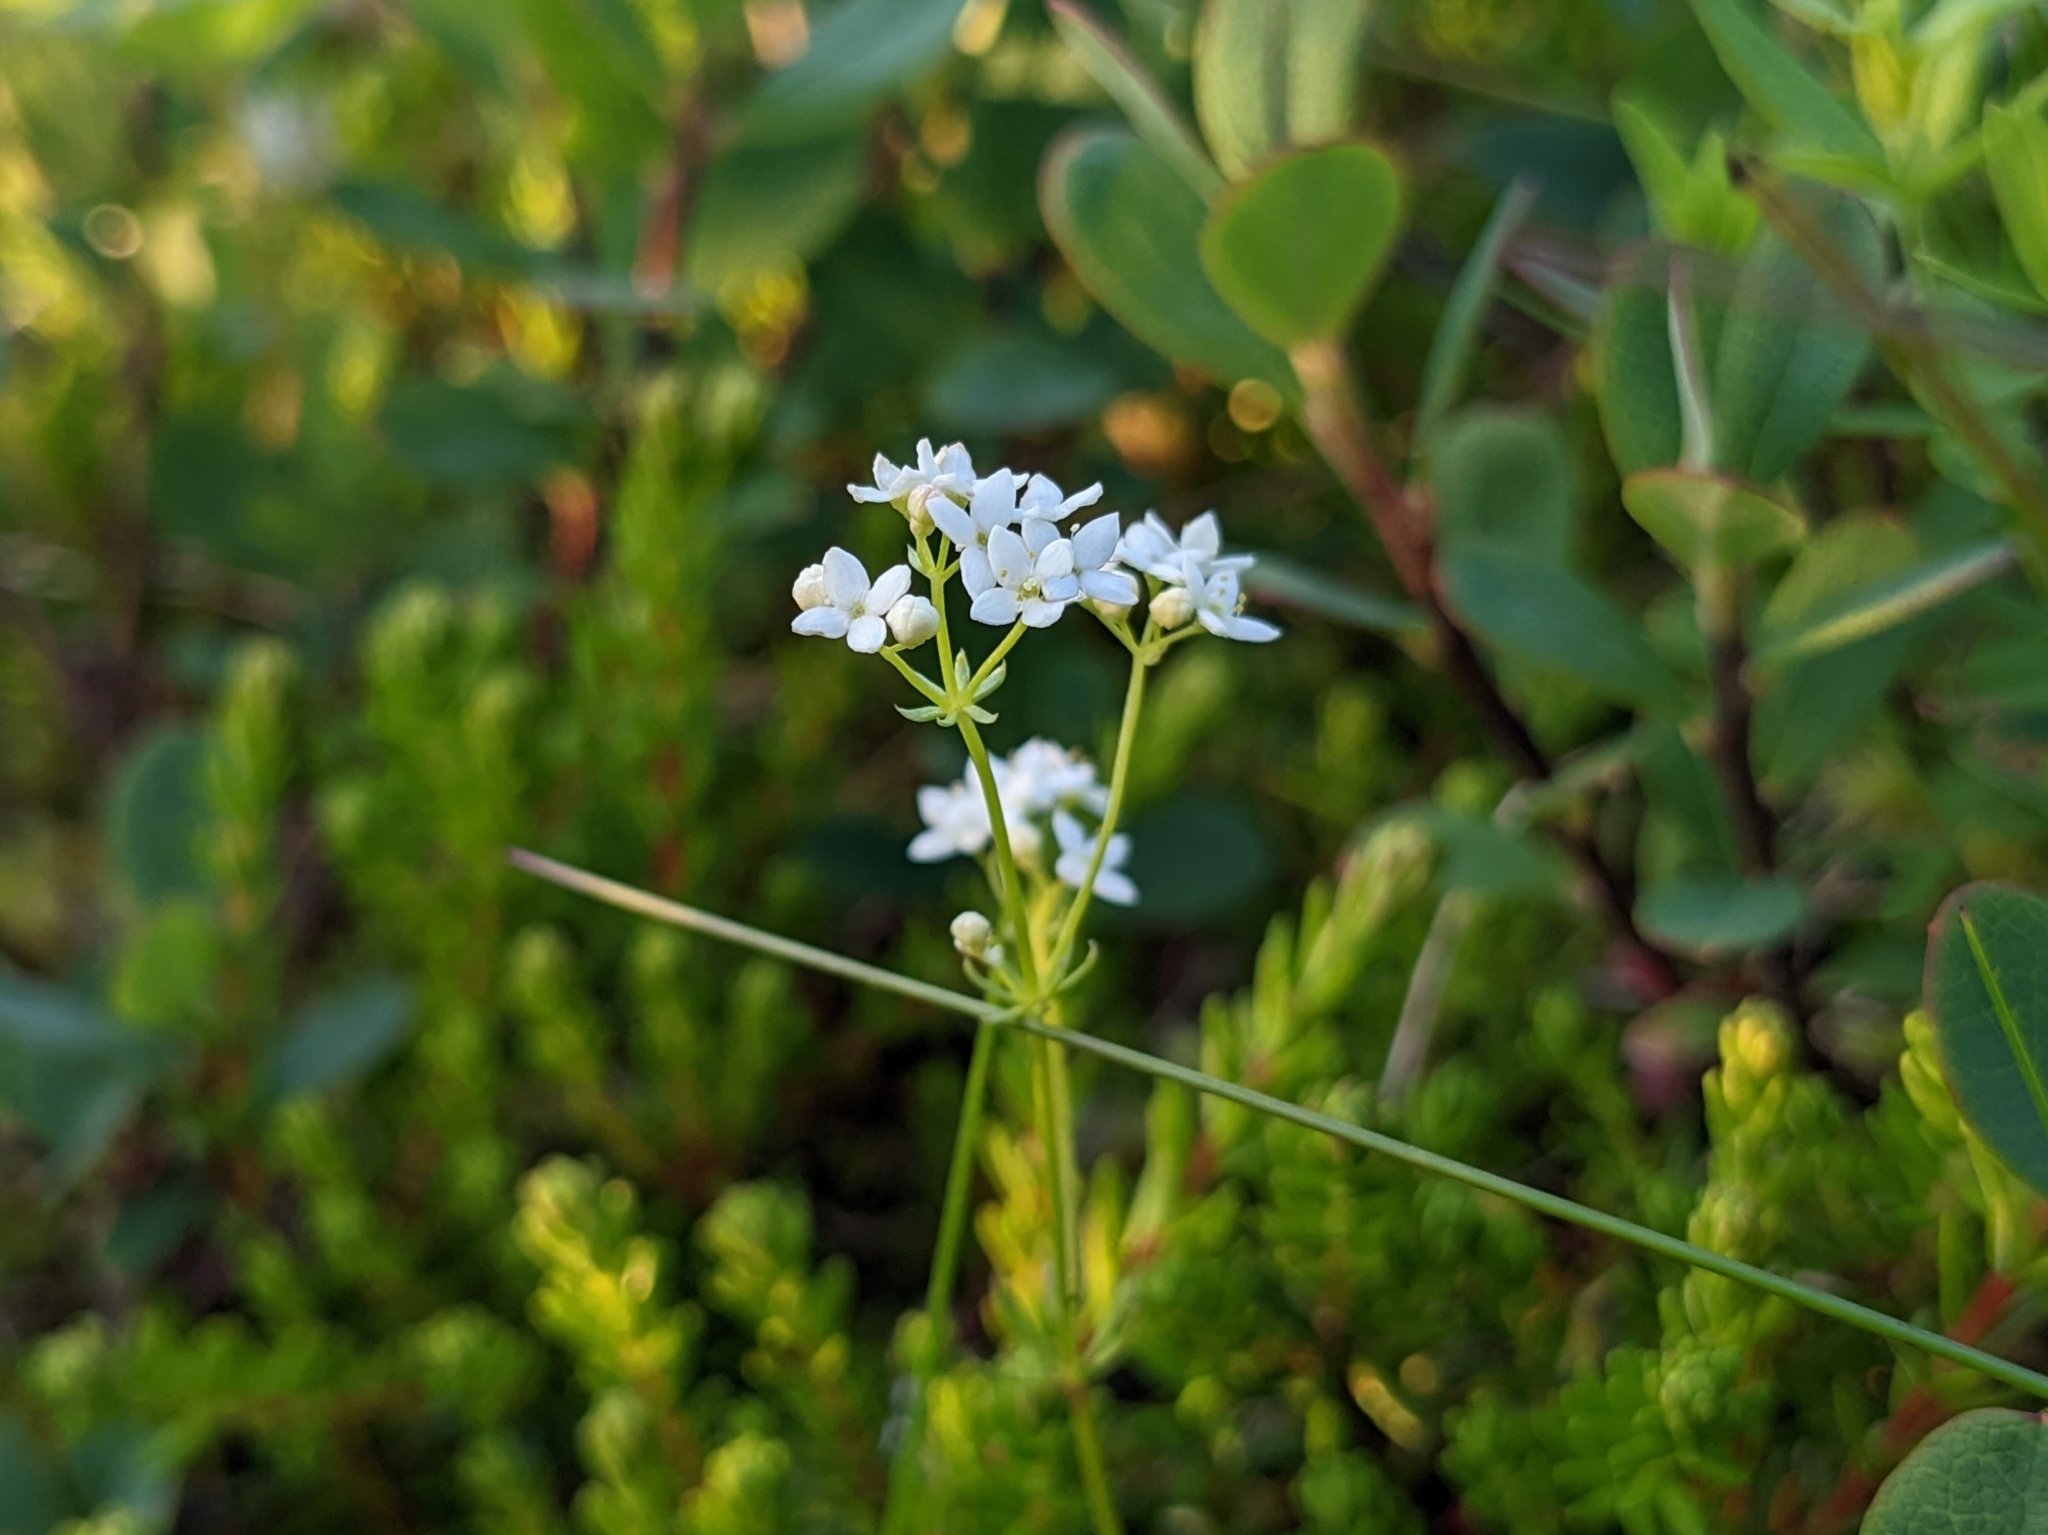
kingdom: Plantae
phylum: Tracheophyta
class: Magnoliopsida
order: Gentianales
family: Rubiaceae
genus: Galium
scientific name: Galium uliginosum
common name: Fen bedstraw
